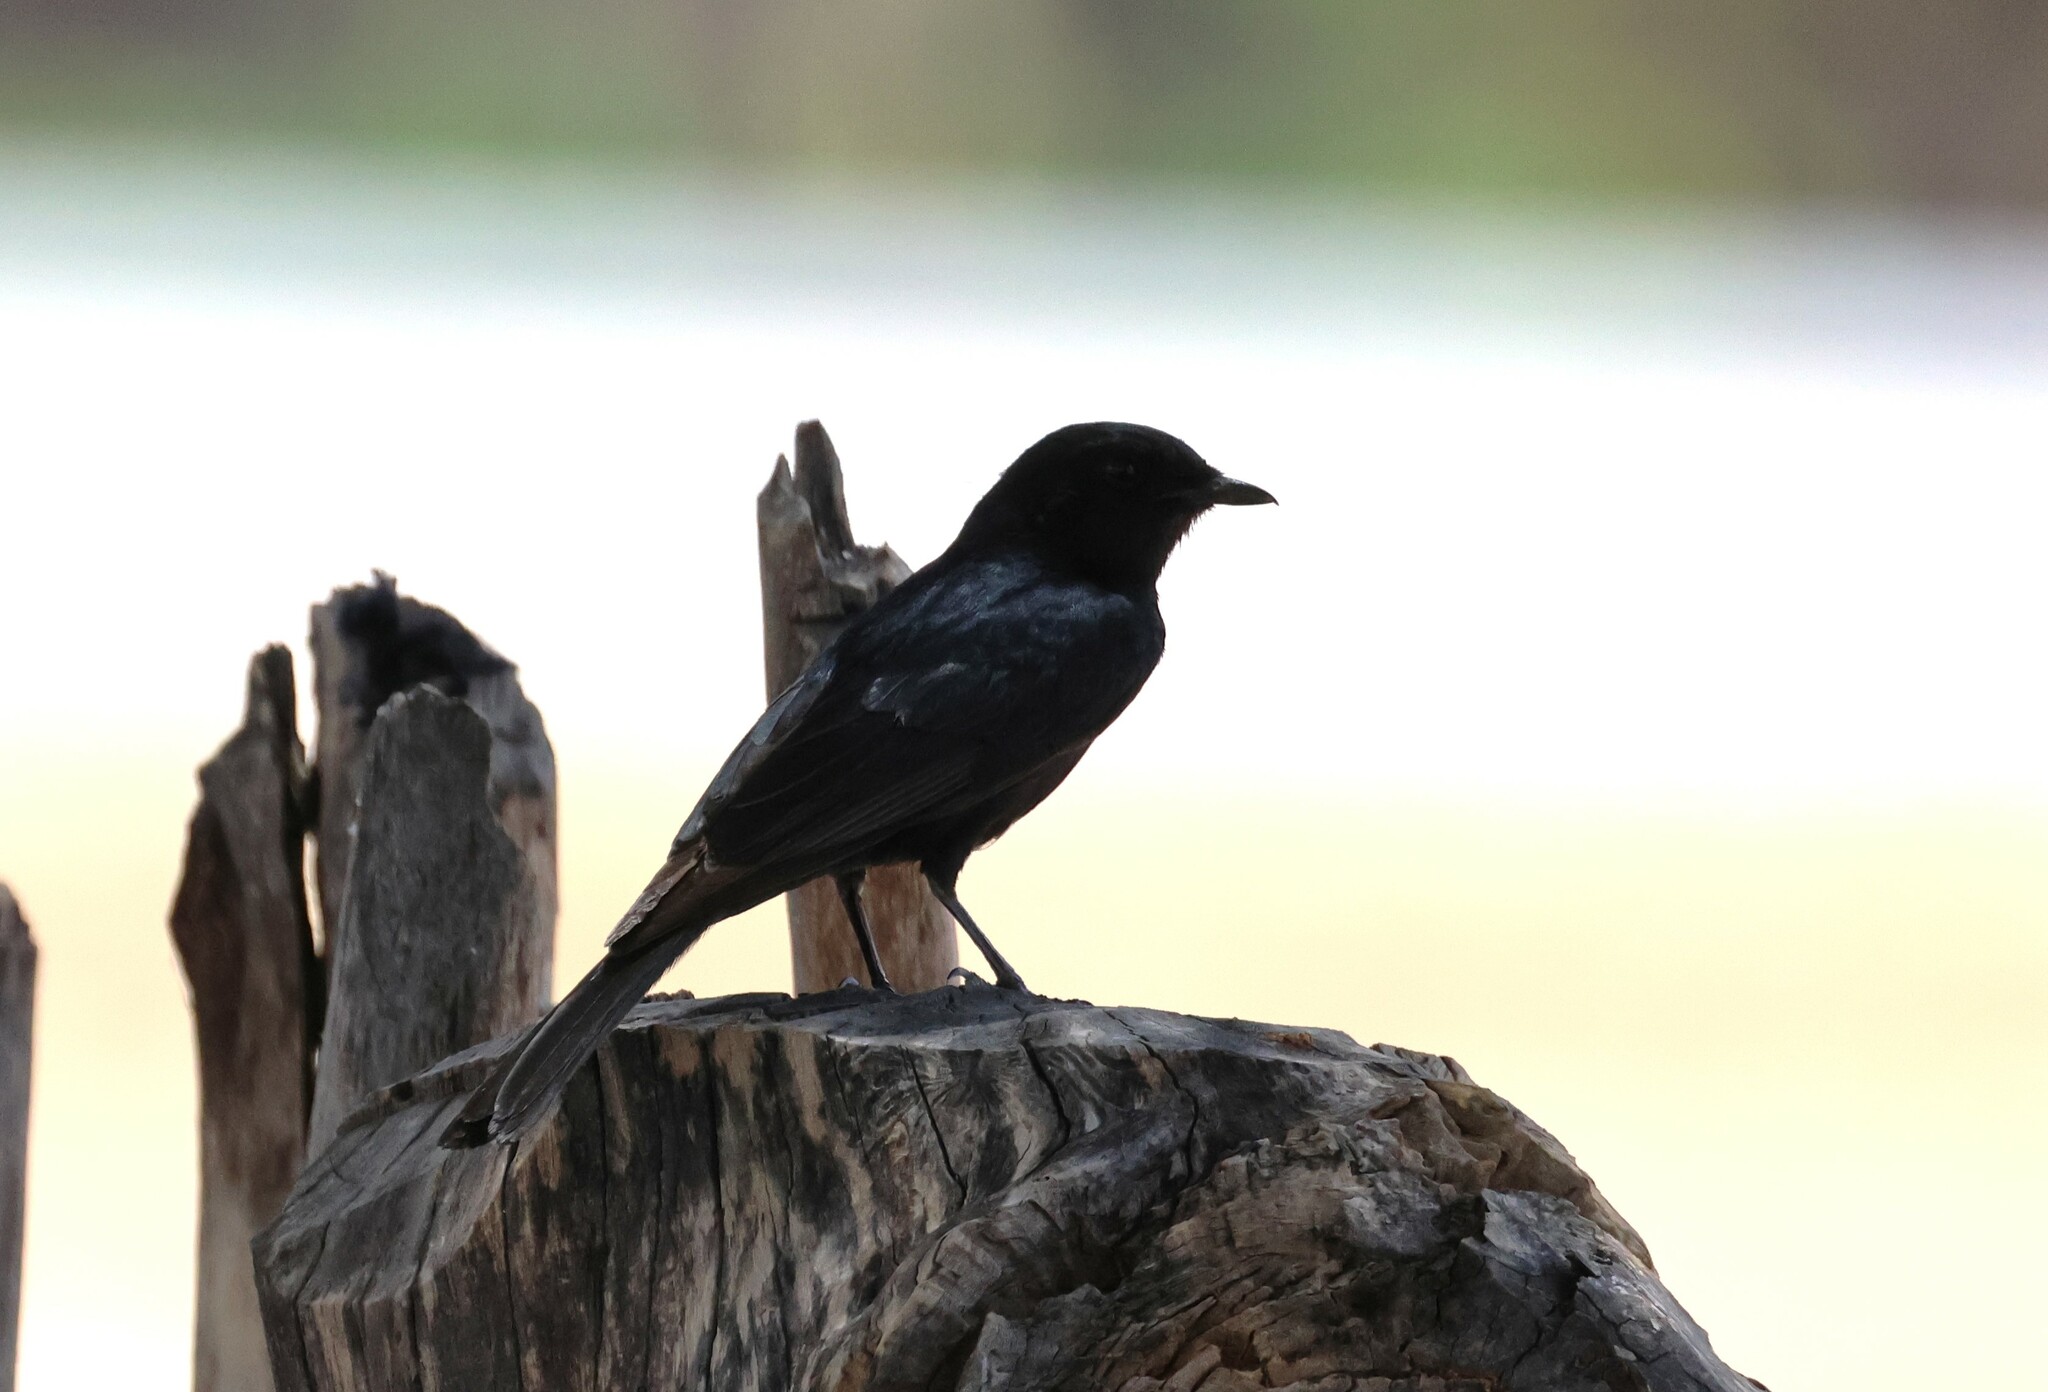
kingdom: Animalia
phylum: Chordata
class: Aves
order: Passeriformes
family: Muscicapidae
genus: Melaenornis
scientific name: Melaenornis pammelaina
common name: Southern black flycatcher
